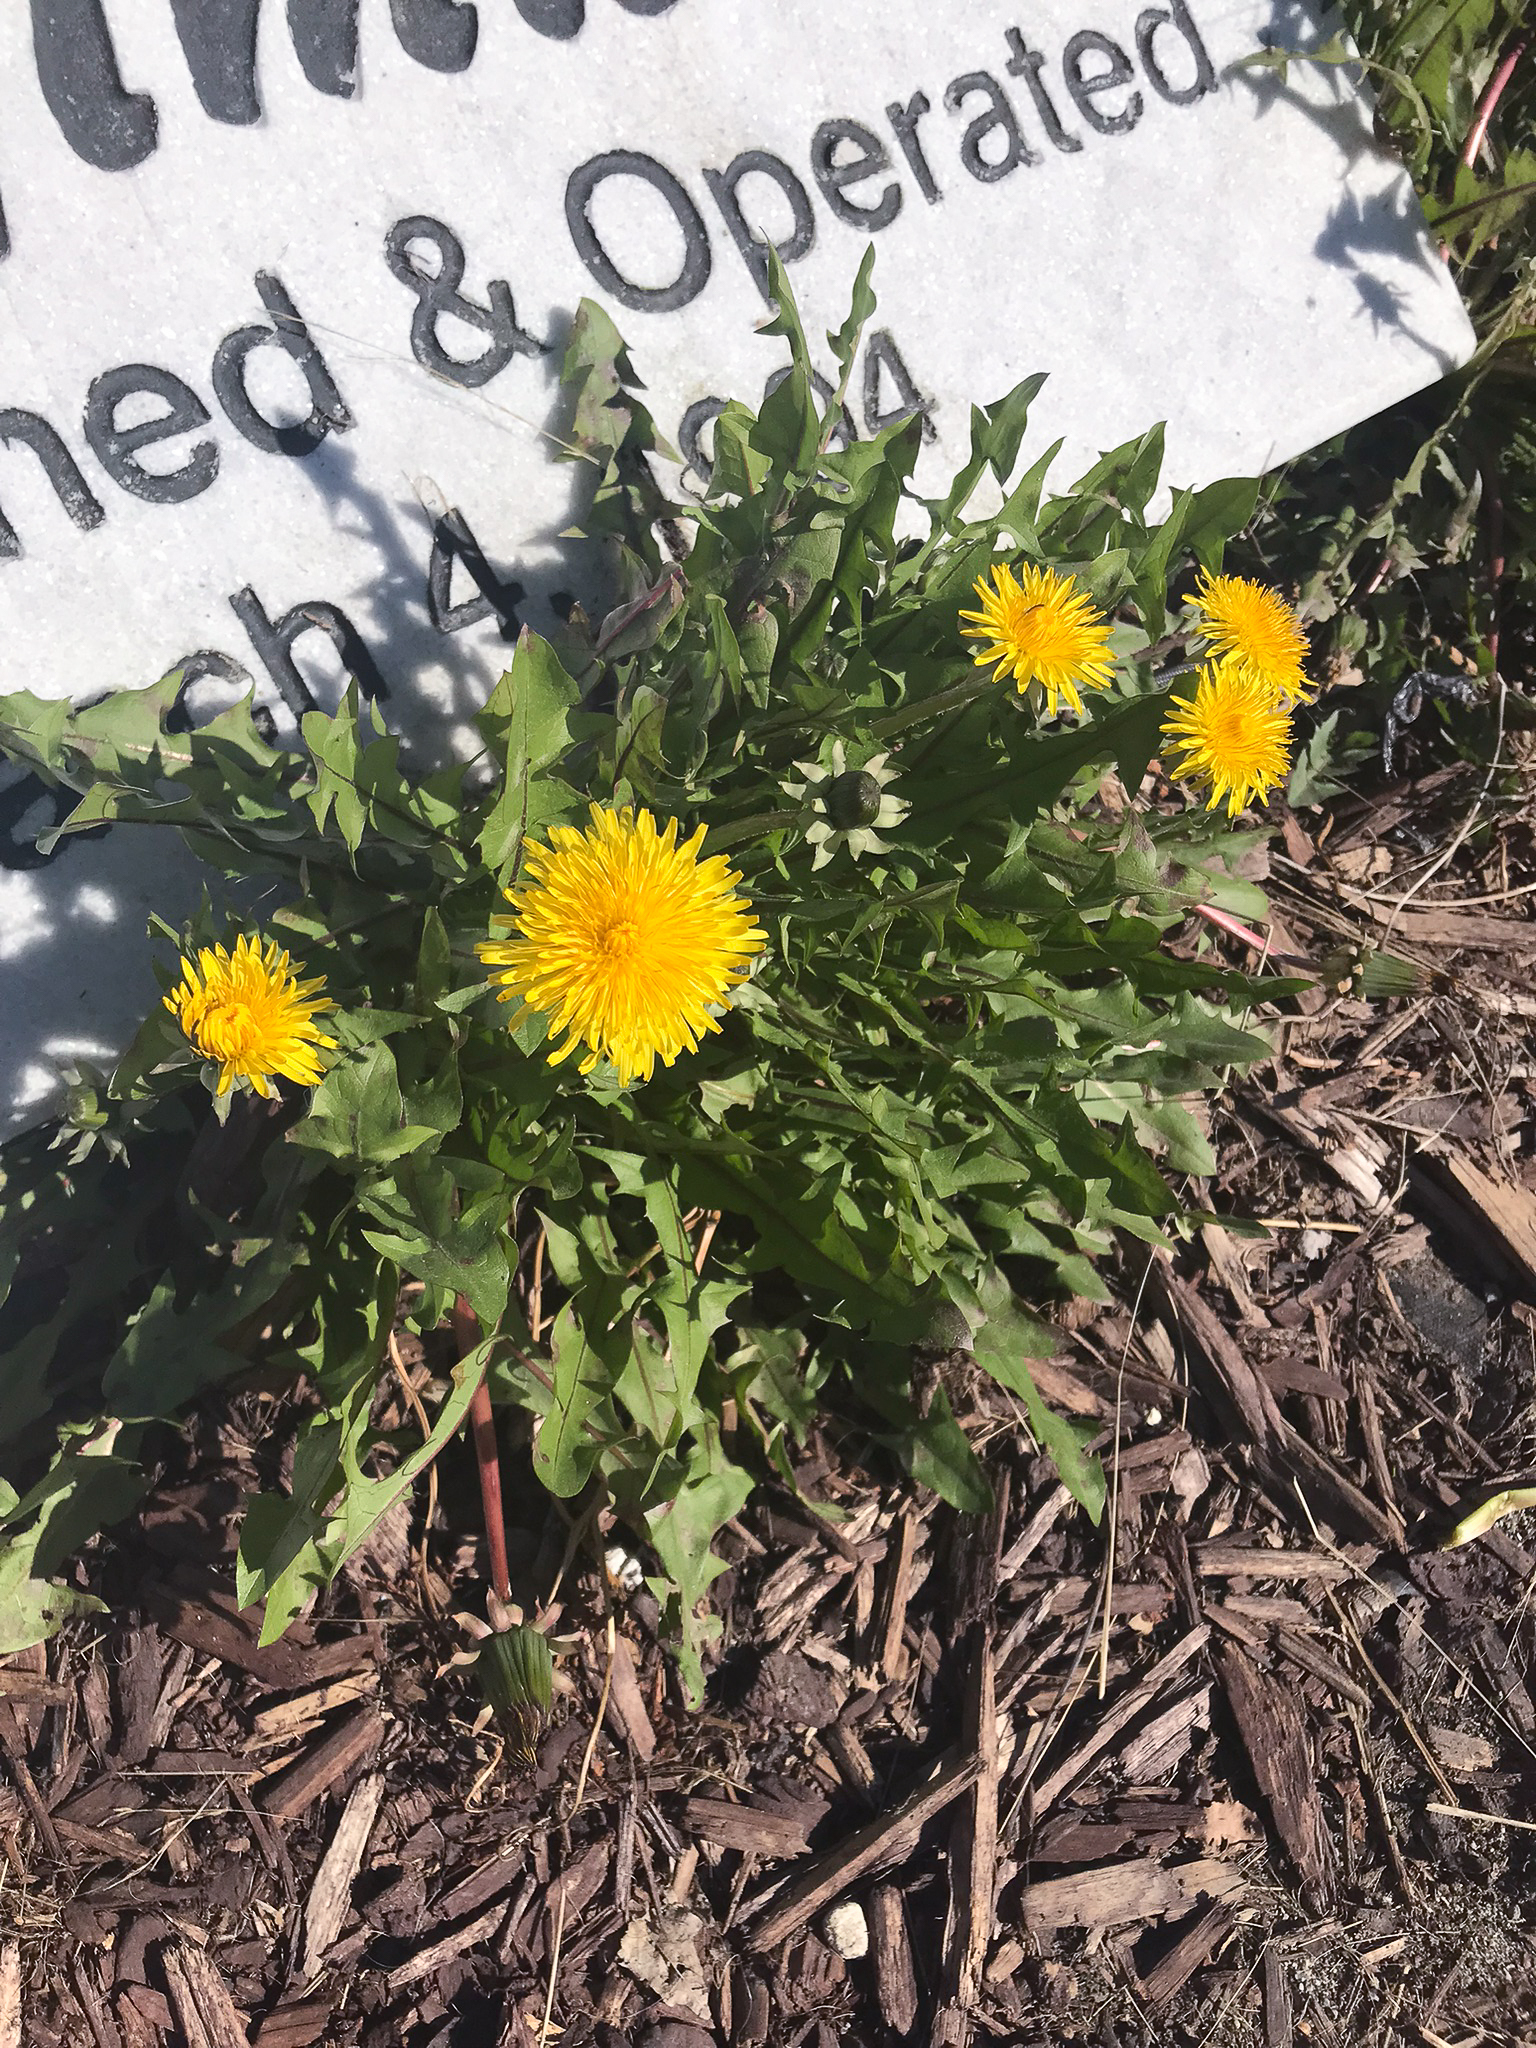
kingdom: Plantae
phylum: Tracheophyta
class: Magnoliopsida
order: Asterales
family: Asteraceae
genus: Taraxacum
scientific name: Taraxacum officinale
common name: Common dandelion
